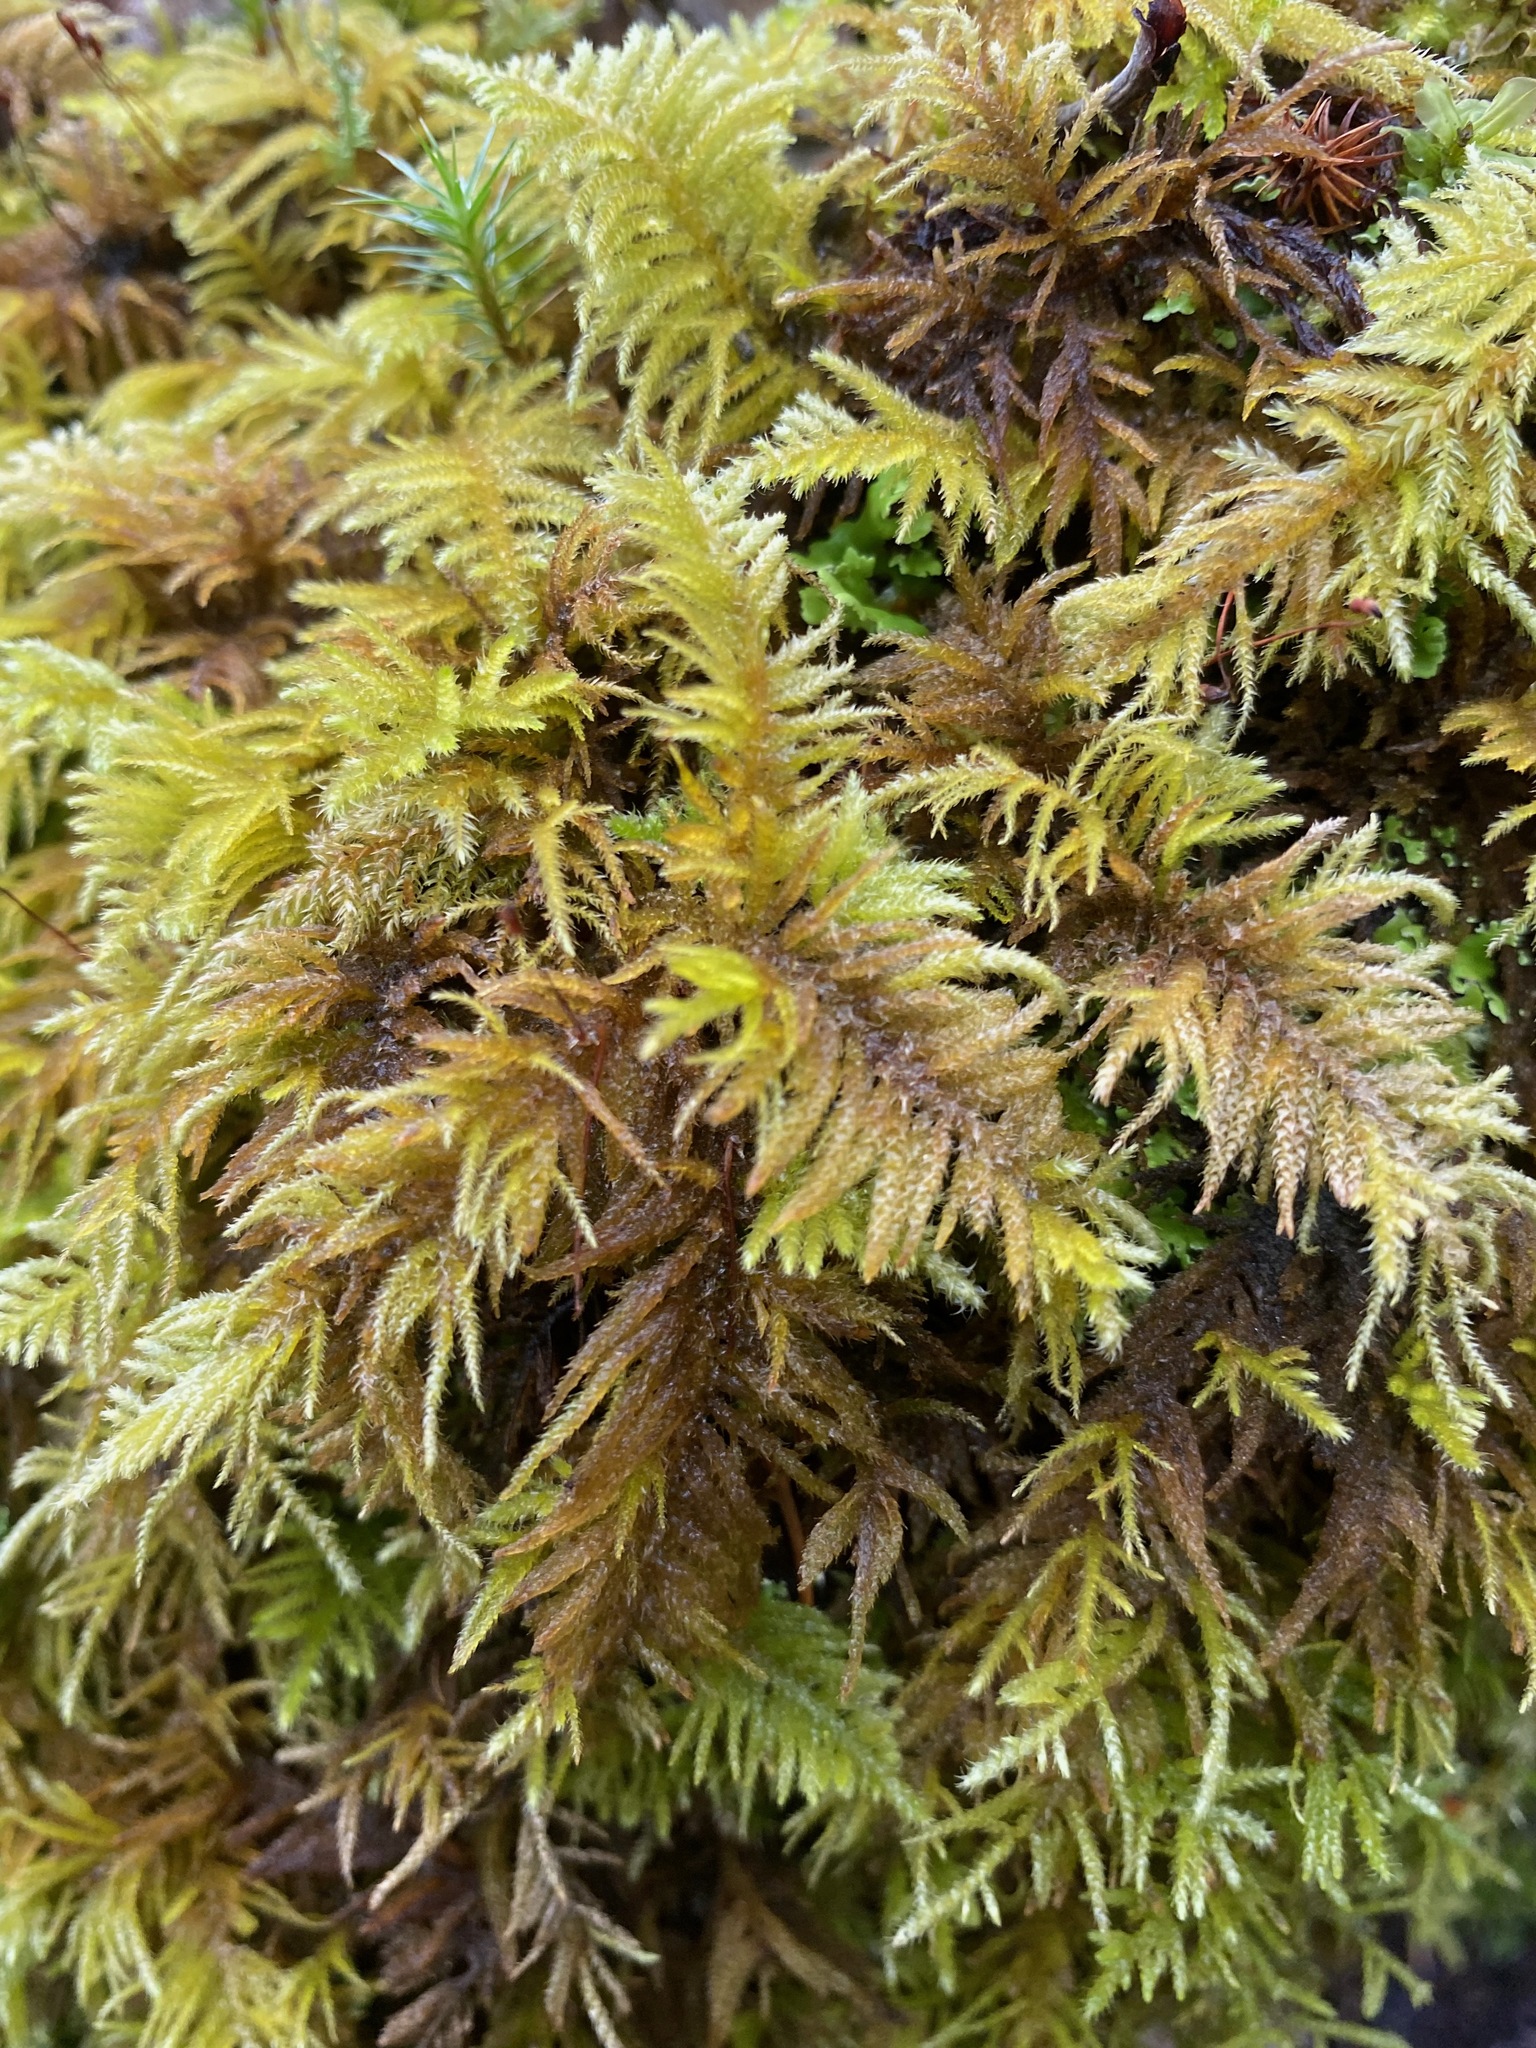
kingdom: Plantae
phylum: Bryophyta
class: Bryopsida
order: Hypnales
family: Brachytheciaceae
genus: Kindbergia
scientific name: Kindbergia oregana
